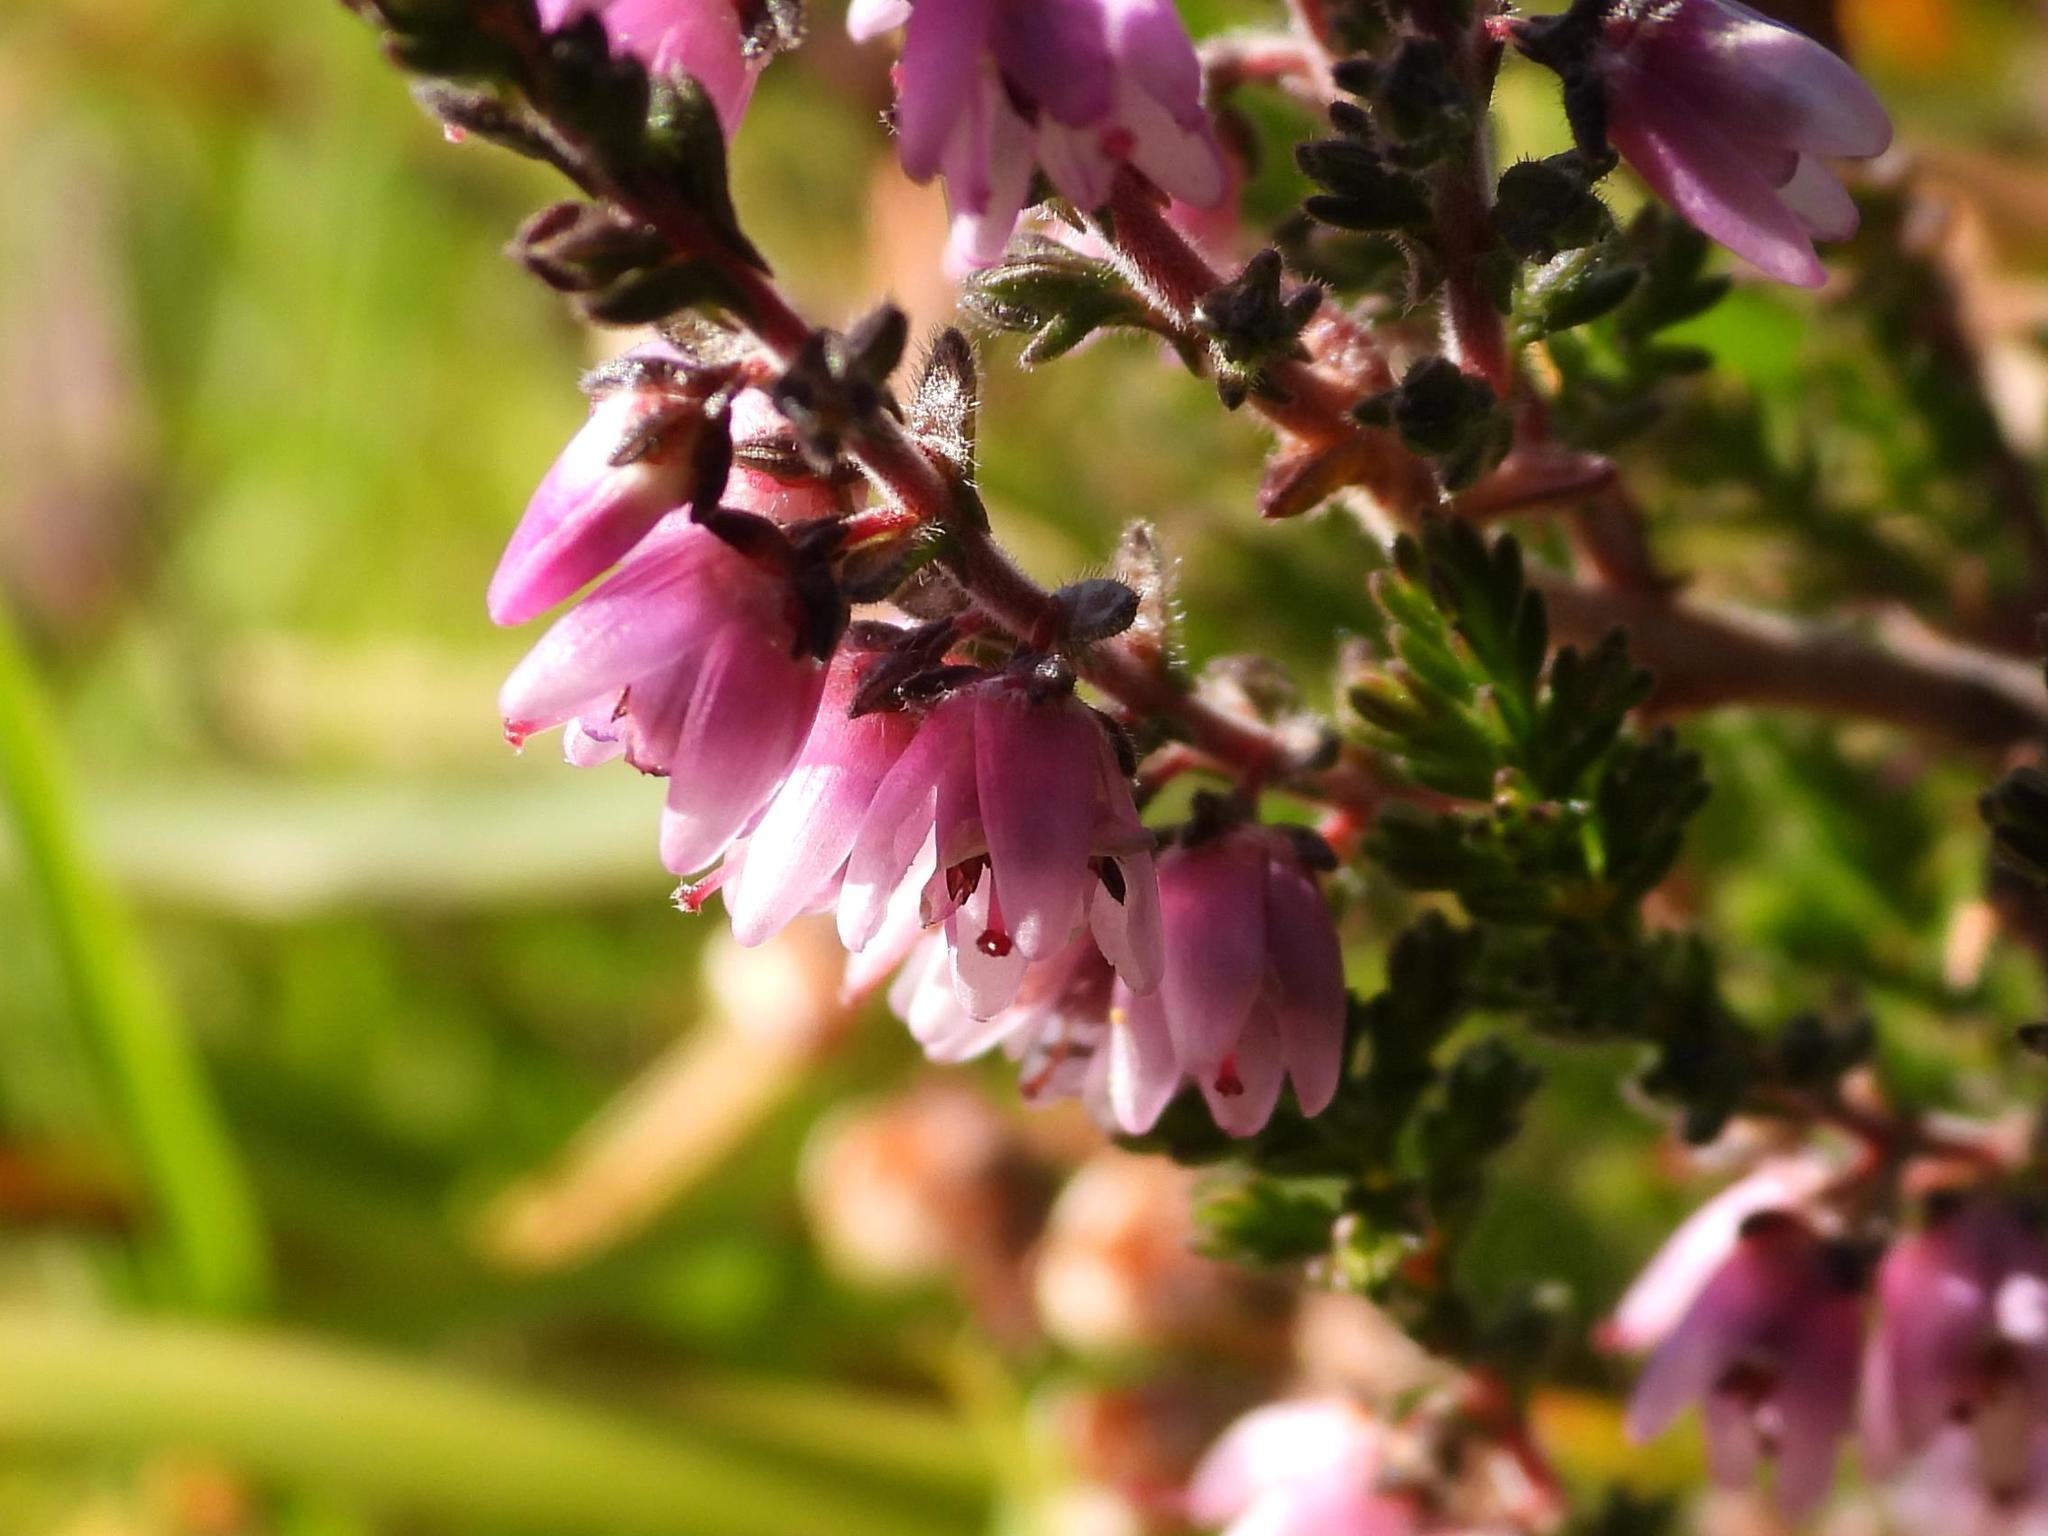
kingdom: Plantae
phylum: Tracheophyta
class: Magnoliopsida
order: Ericales
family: Ericaceae
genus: Calluna
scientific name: Calluna vulgaris
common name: Heather
